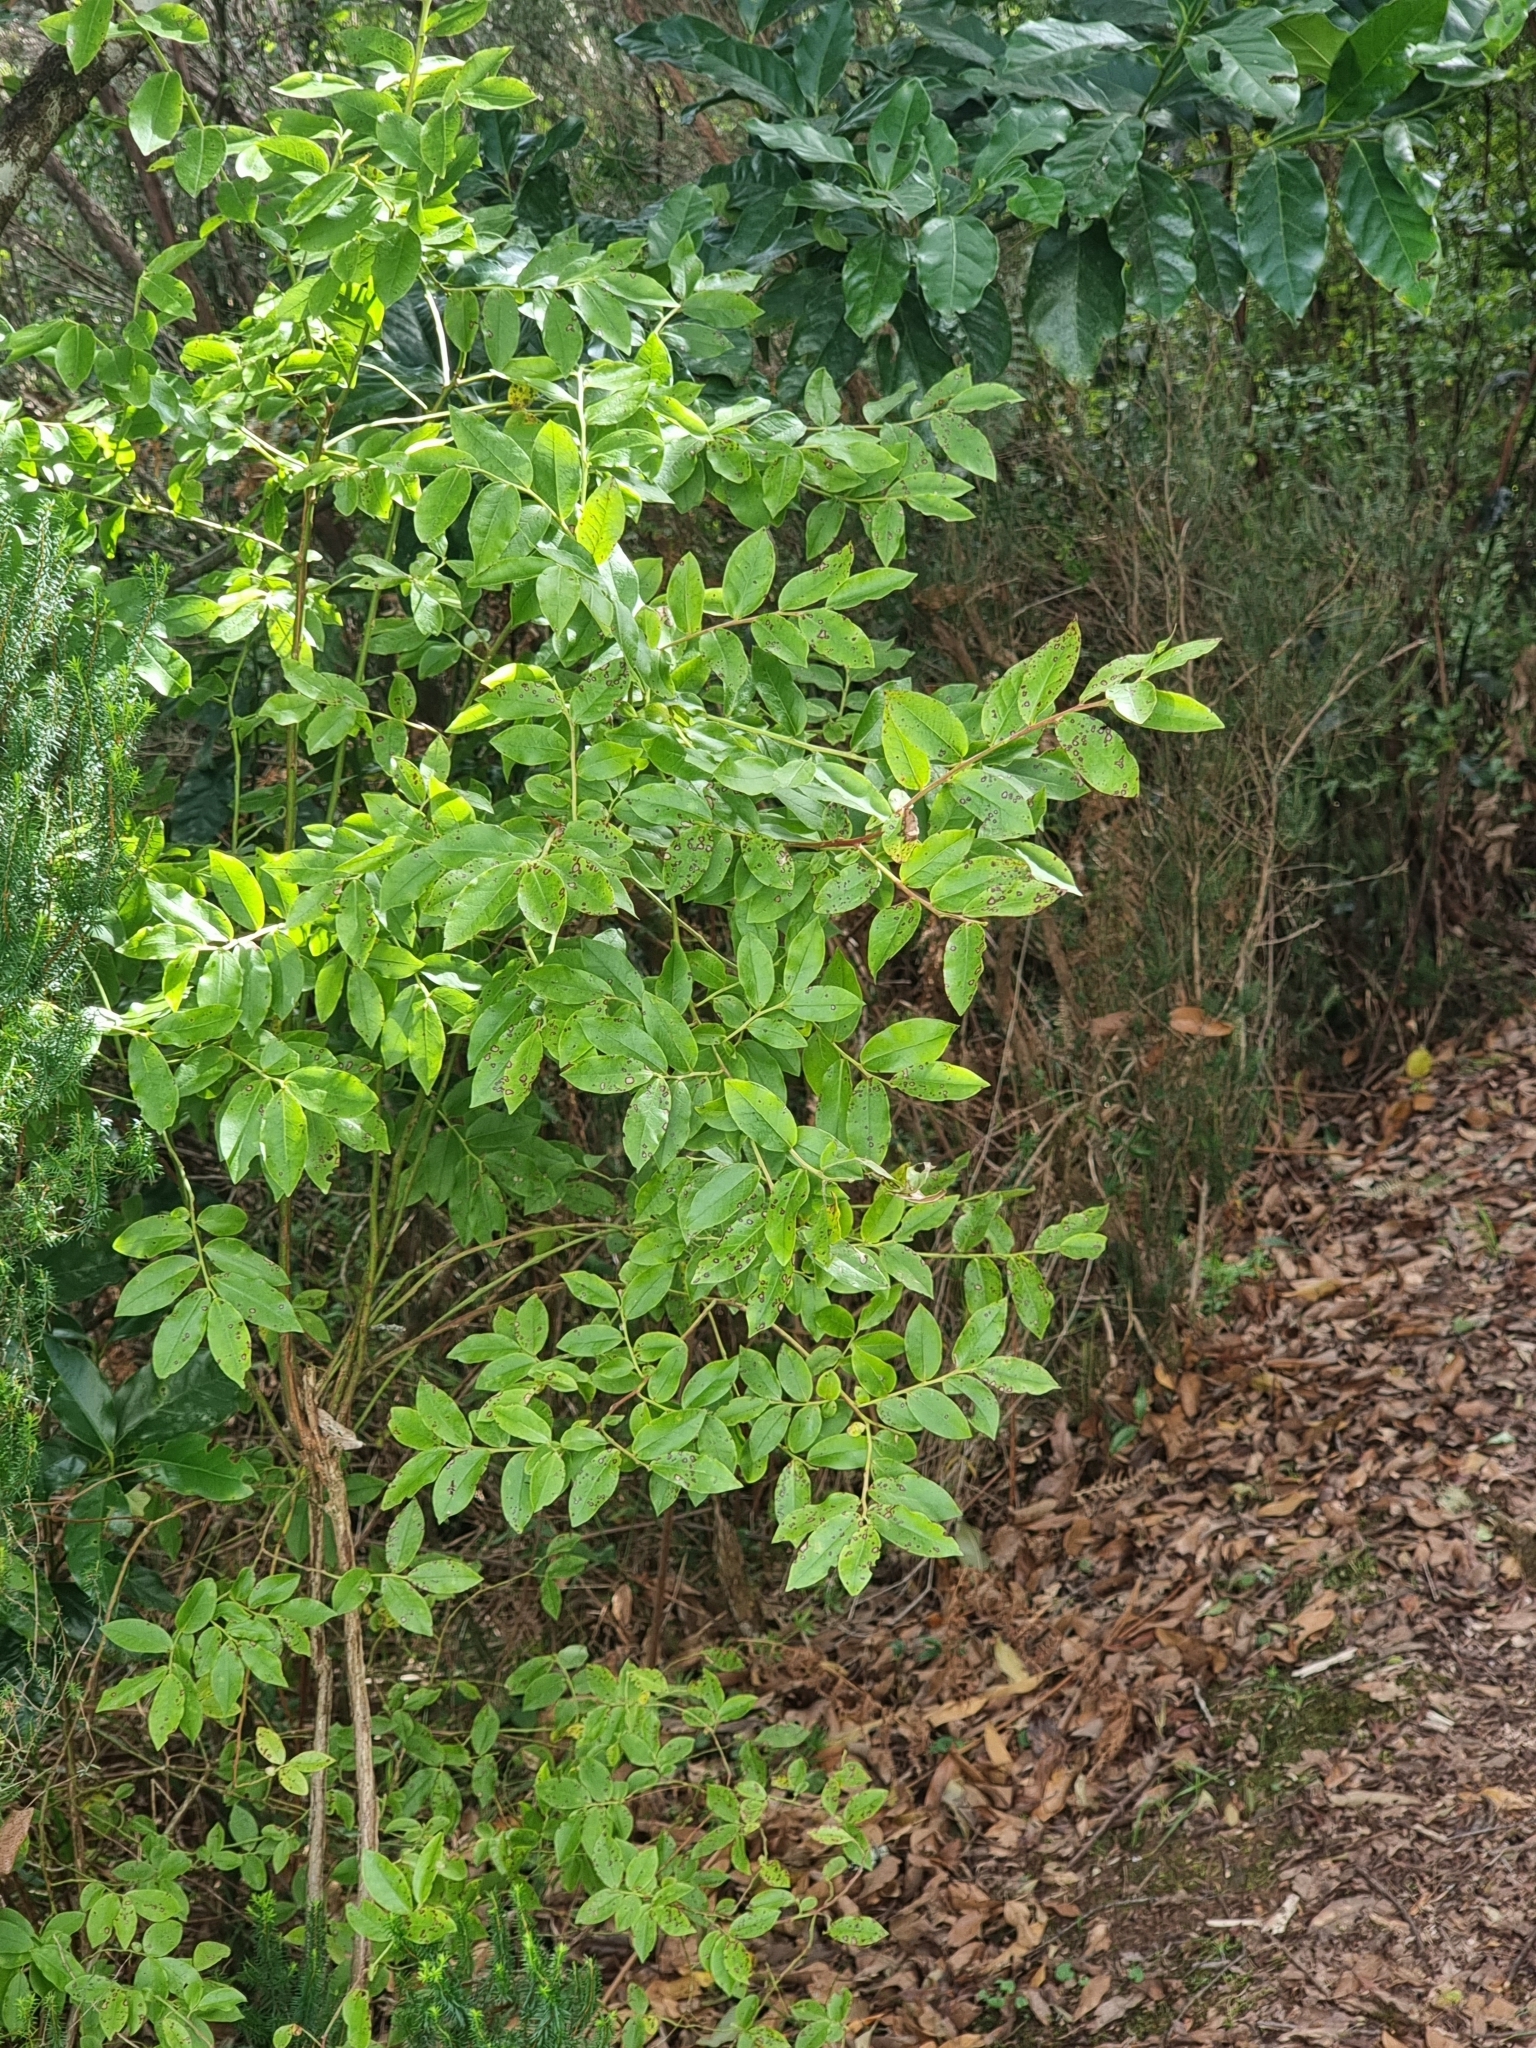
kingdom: Plantae
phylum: Tracheophyta
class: Magnoliopsida
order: Ericales
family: Ericaceae
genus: Vaccinium
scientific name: Vaccinium padifolium
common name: Madeiran blueberry
